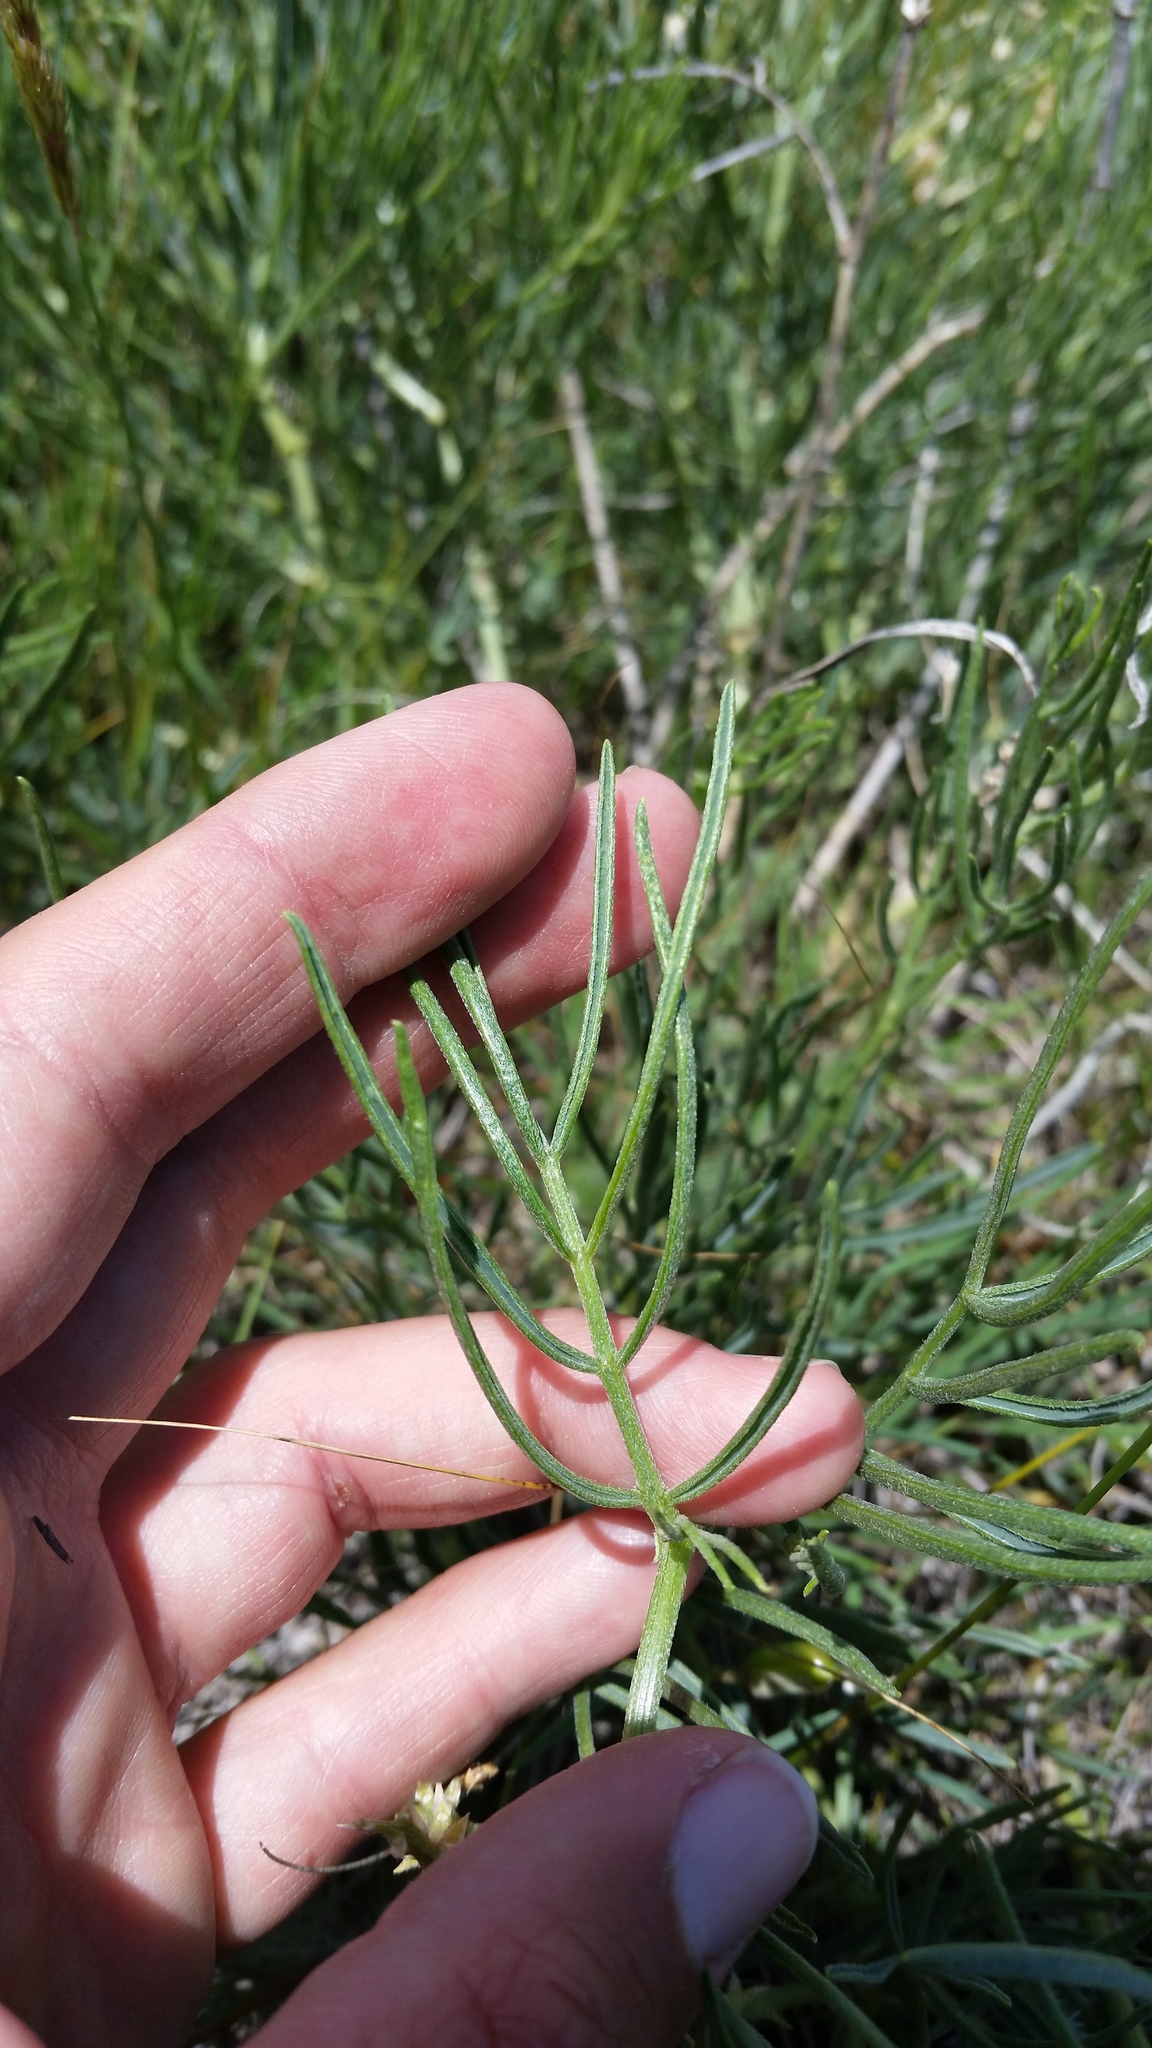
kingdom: Plantae
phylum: Tracheophyta
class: Magnoliopsida
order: Fabales
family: Fabaceae
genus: Astragalus
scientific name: Astragalus pectinatus
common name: Tine-leaf milk-vetch
